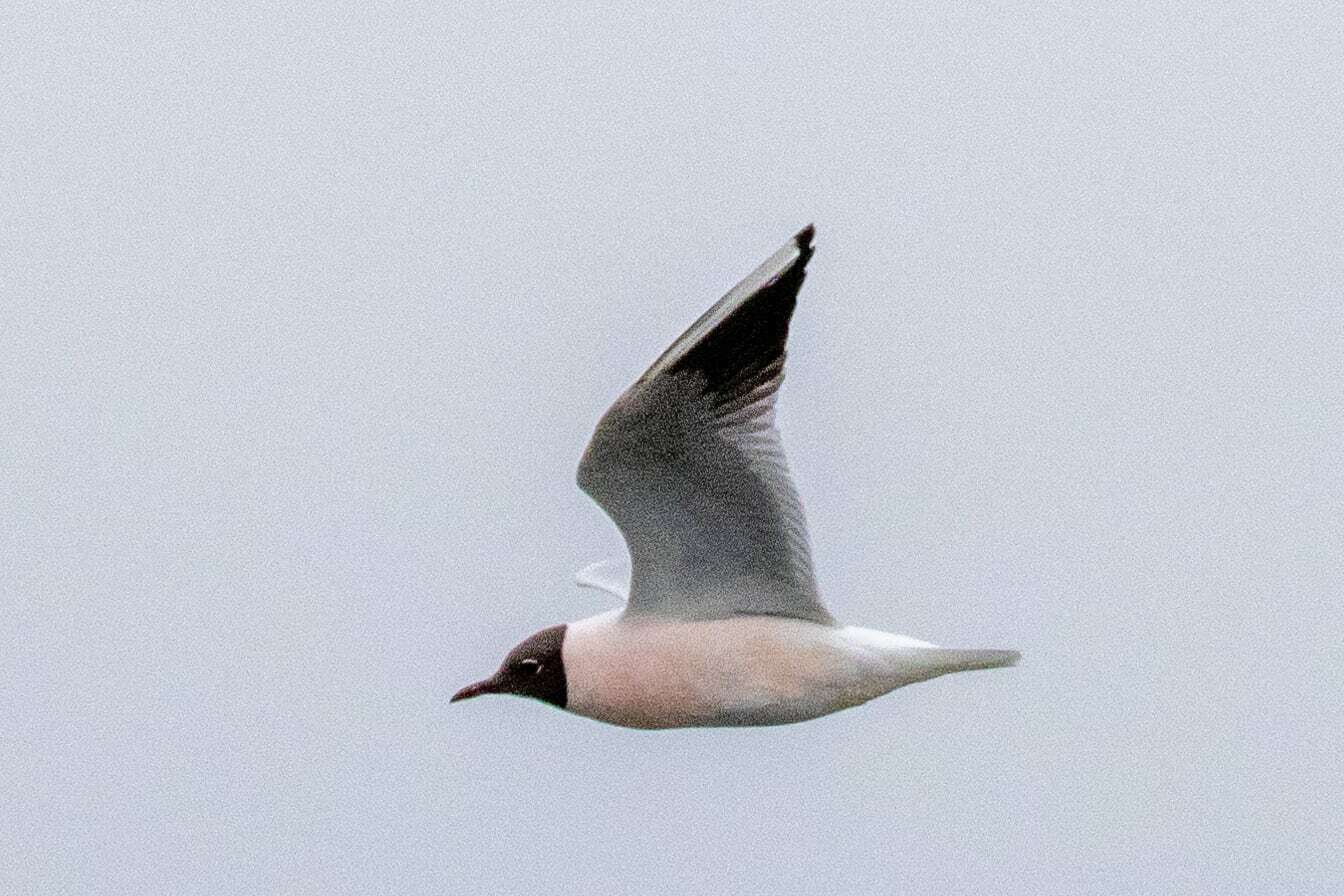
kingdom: Animalia
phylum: Chordata
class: Aves
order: Charadriiformes
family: Laridae
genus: Chroicocephalus
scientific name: Chroicocephalus ridibundus
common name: Black-headed gull
